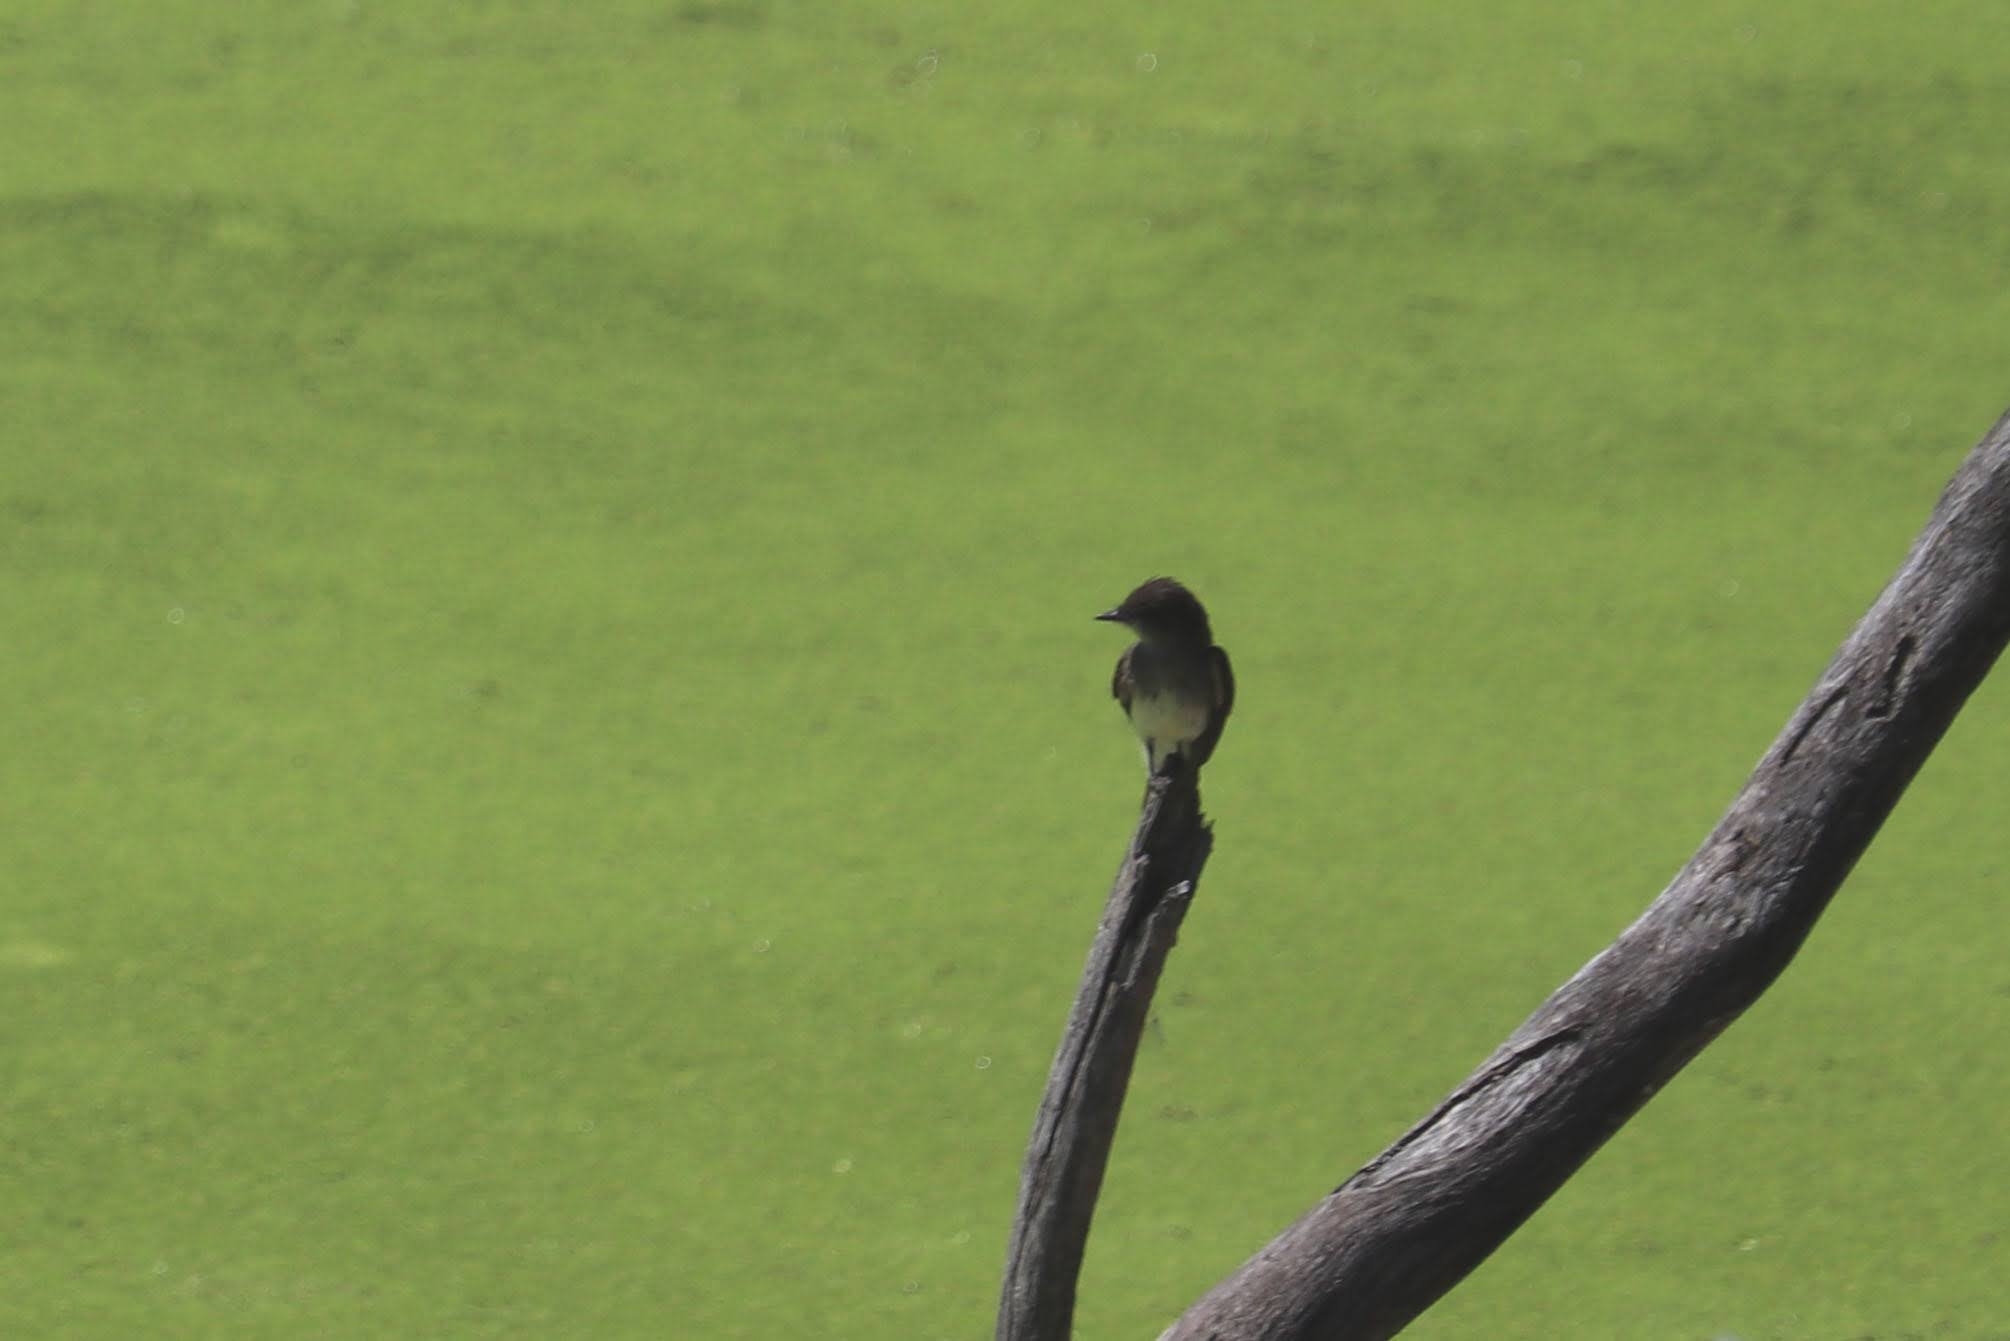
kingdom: Animalia
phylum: Chordata
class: Aves
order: Passeriformes
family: Tyrannidae
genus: Sayornis
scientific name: Sayornis phoebe
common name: Eastern phoebe
